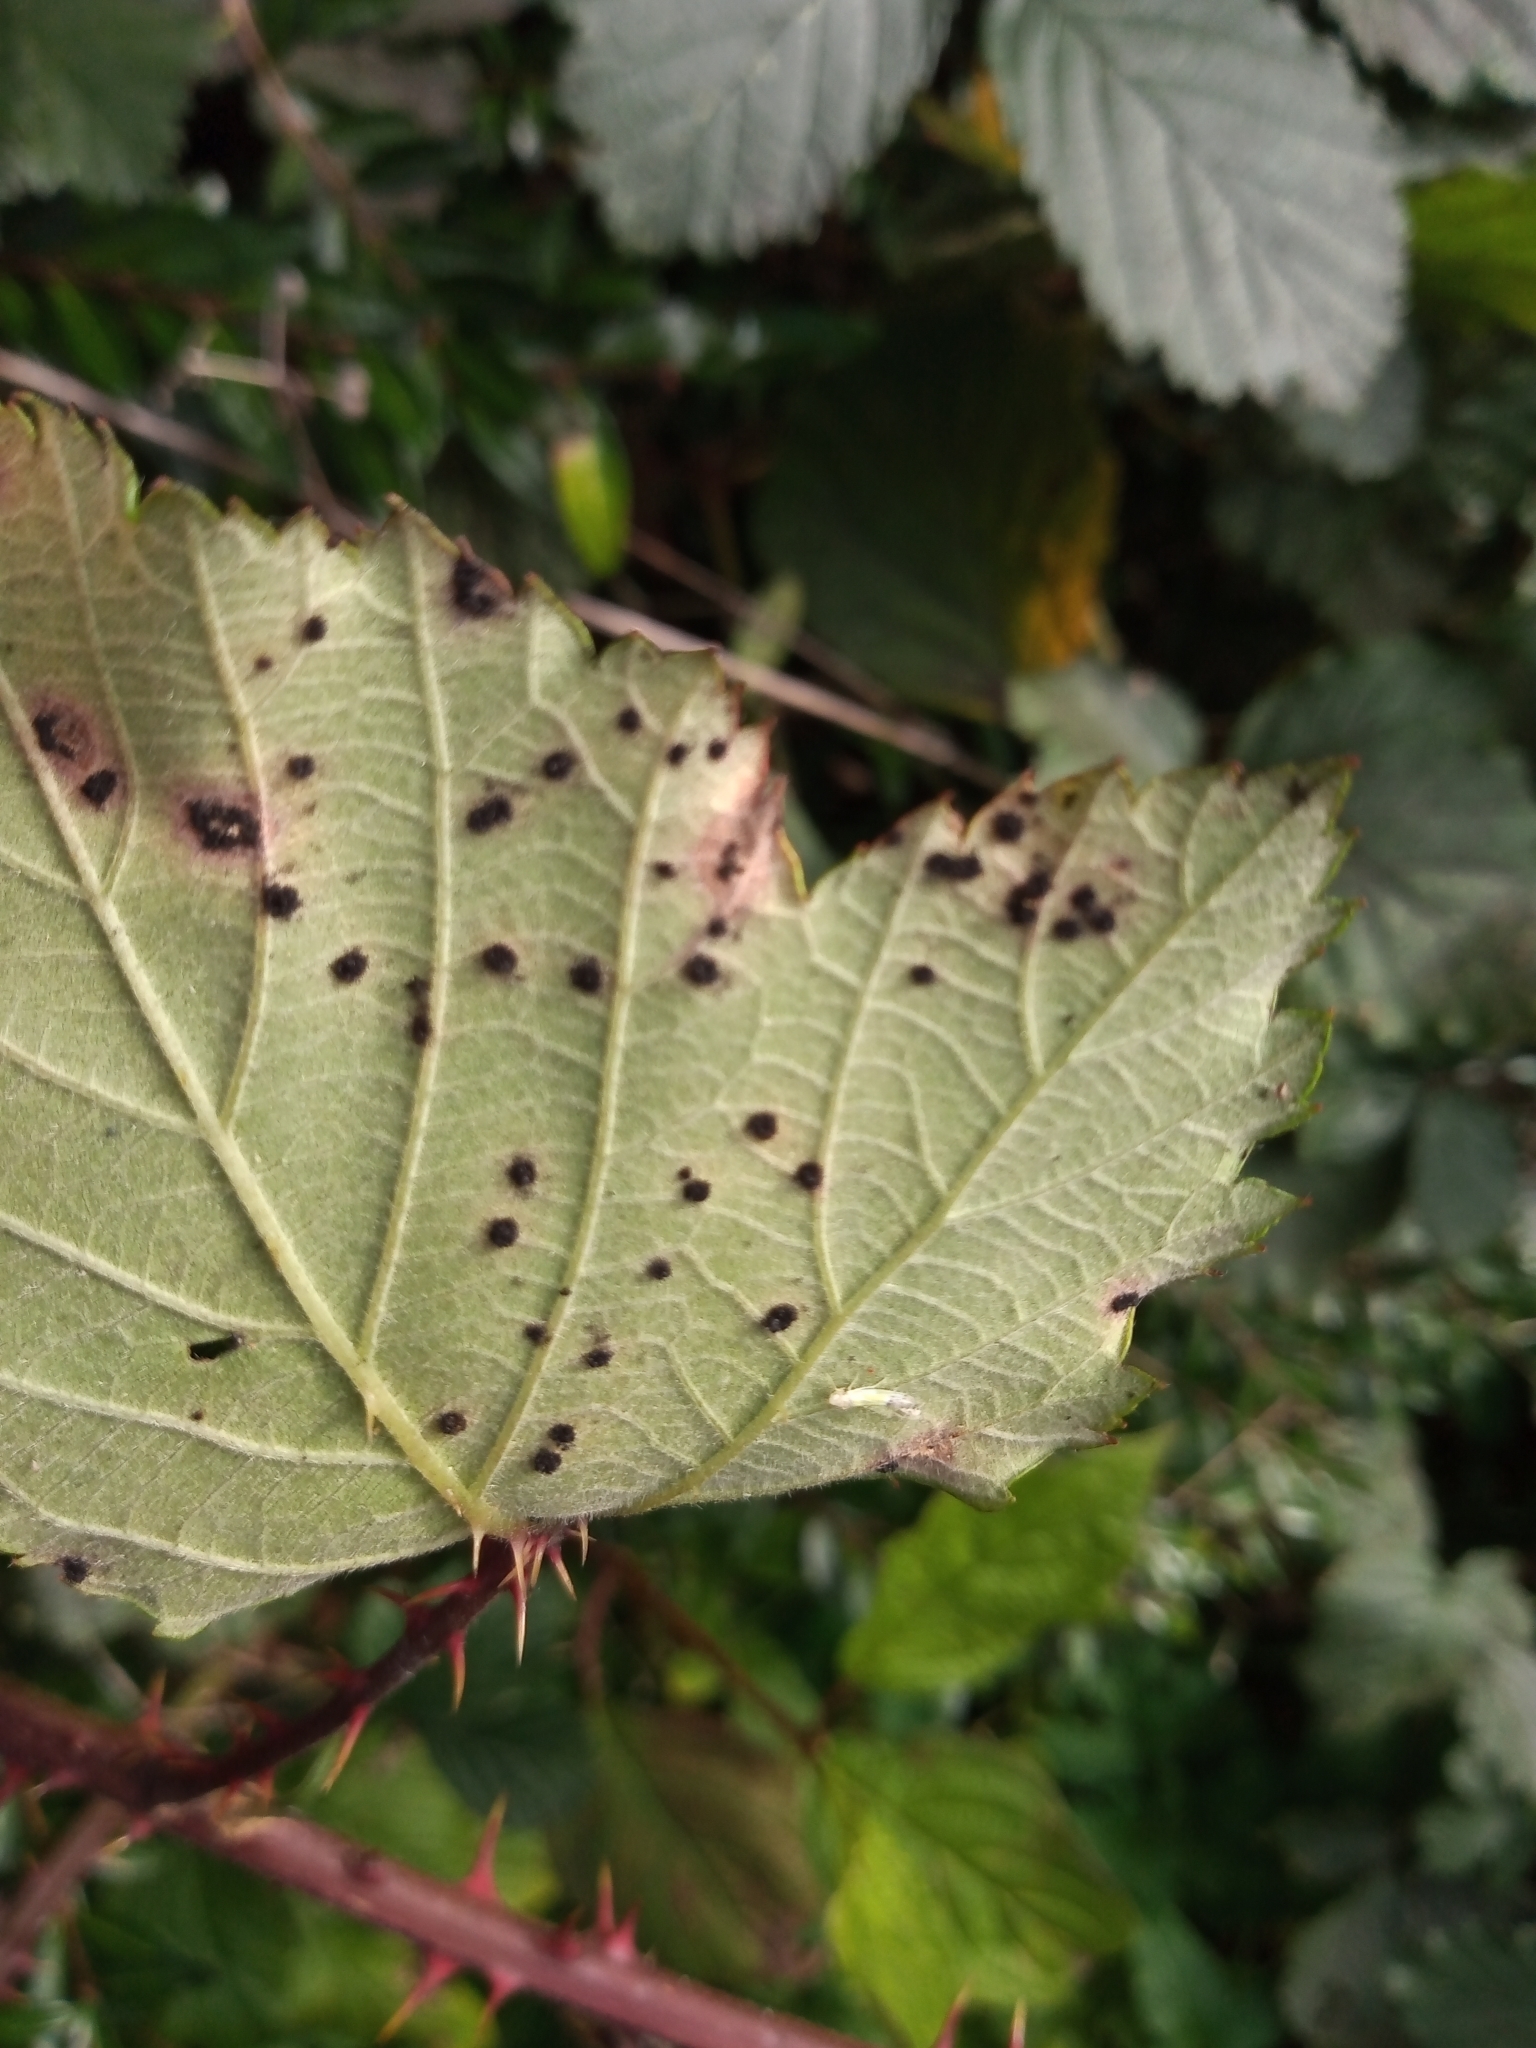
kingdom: Fungi
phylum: Basidiomycota
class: Pucciniomycetes
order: Pucciniales
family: Phragmidiaceae
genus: Phragmidium
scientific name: Phragmidium violaceum
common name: Violet bramble rust
